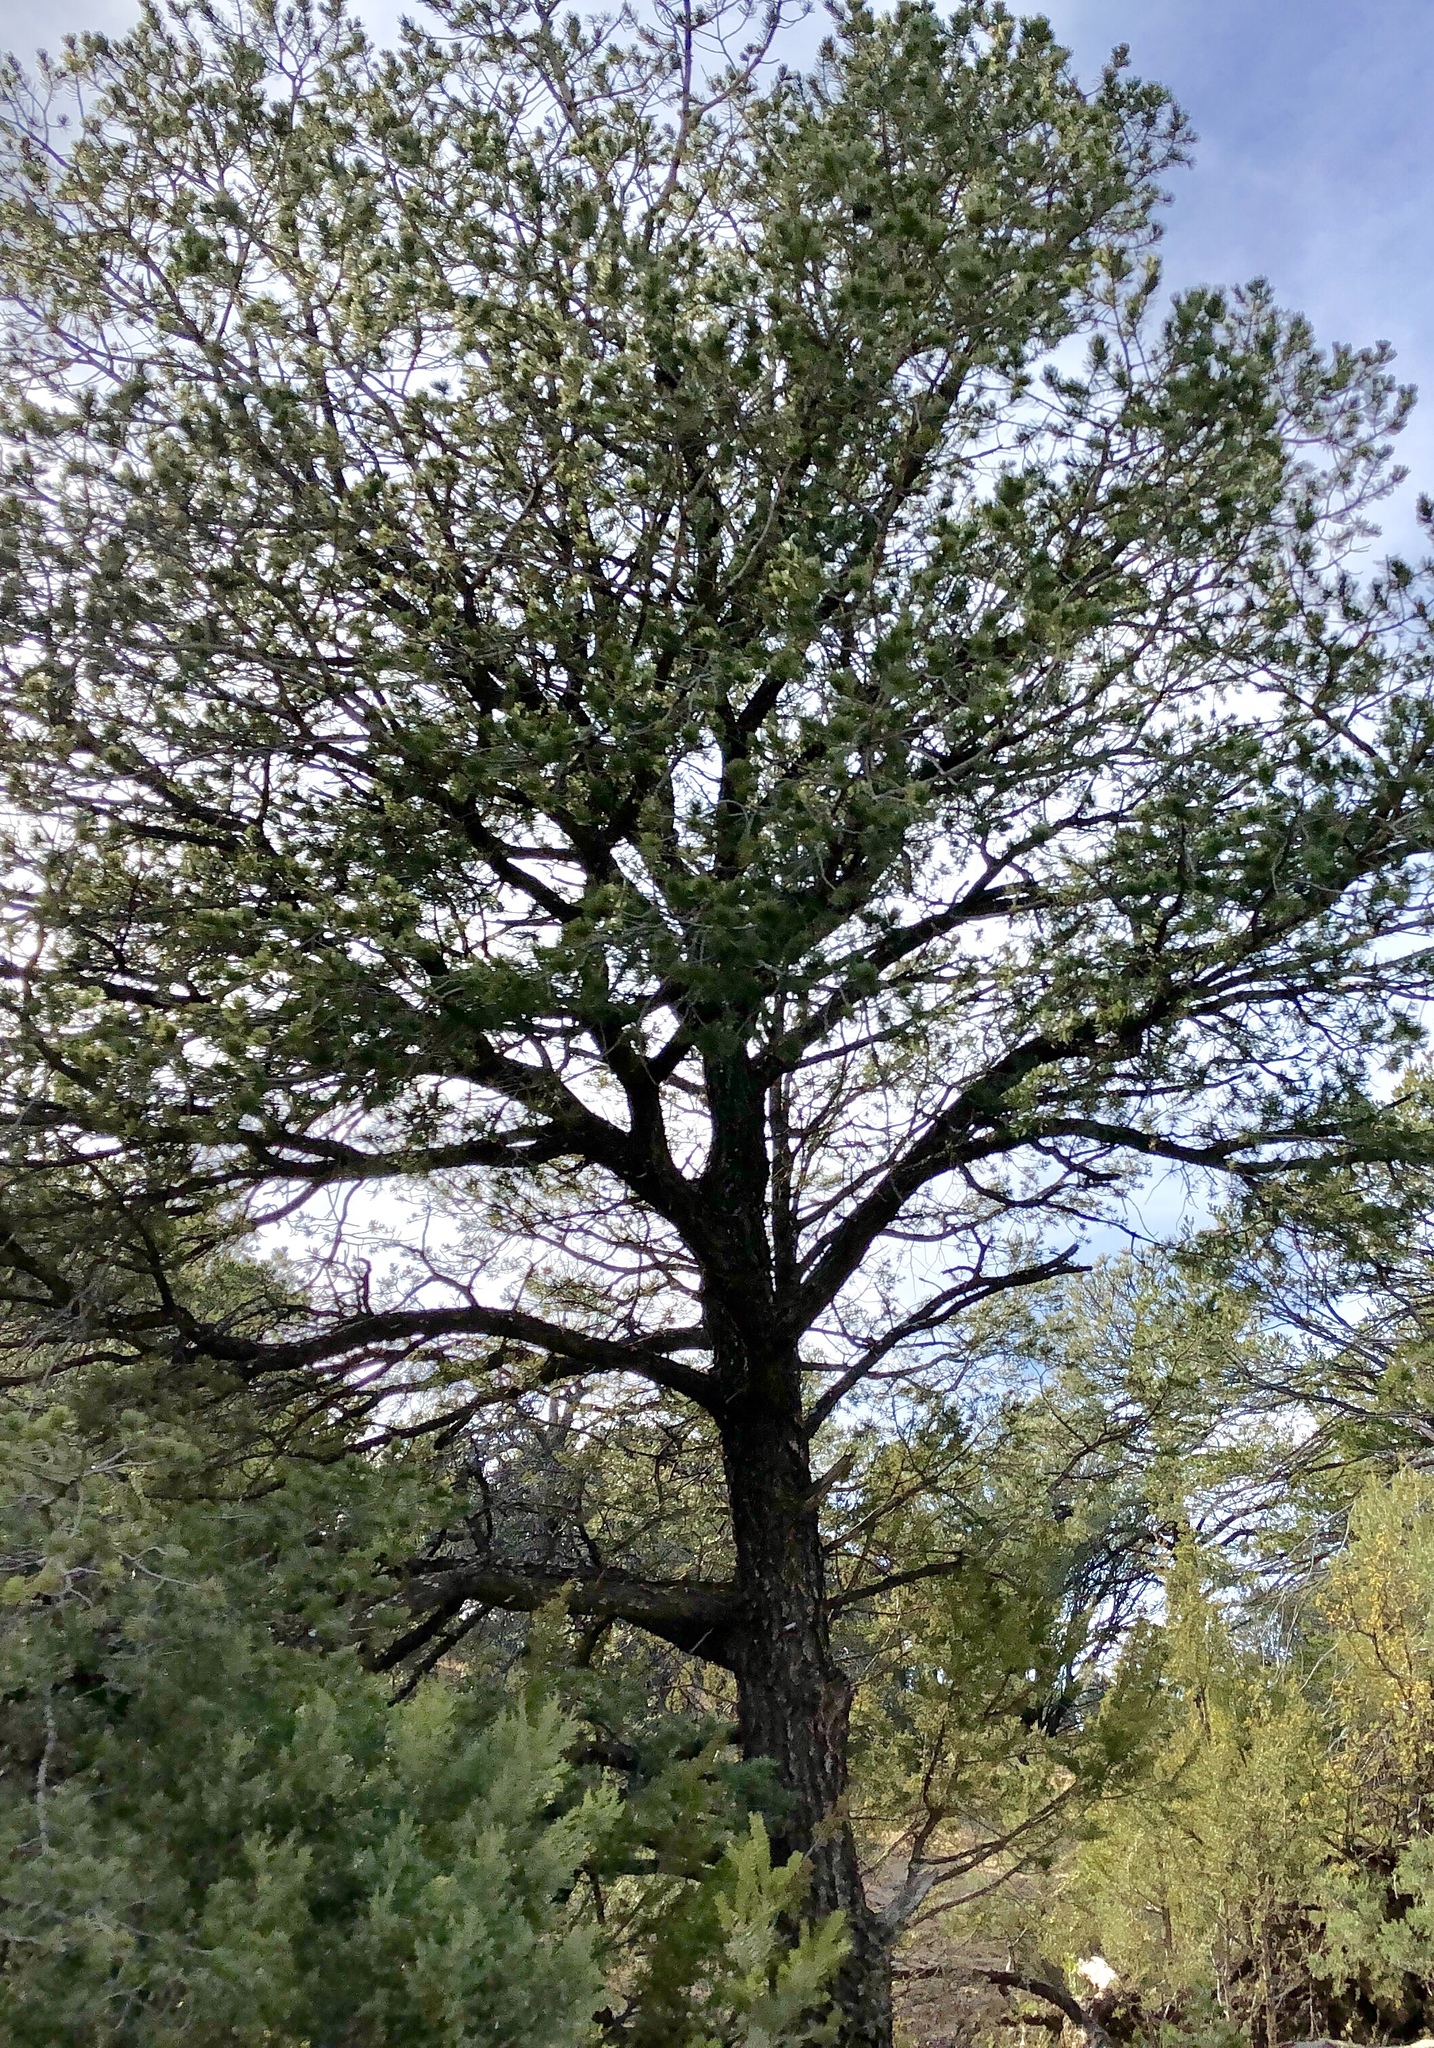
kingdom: Plantae
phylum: Tracheophyta
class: Pinopsida
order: Pinales
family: Pinaceae
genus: Pinus
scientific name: Pinus edulis
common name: Colorado pinyon
